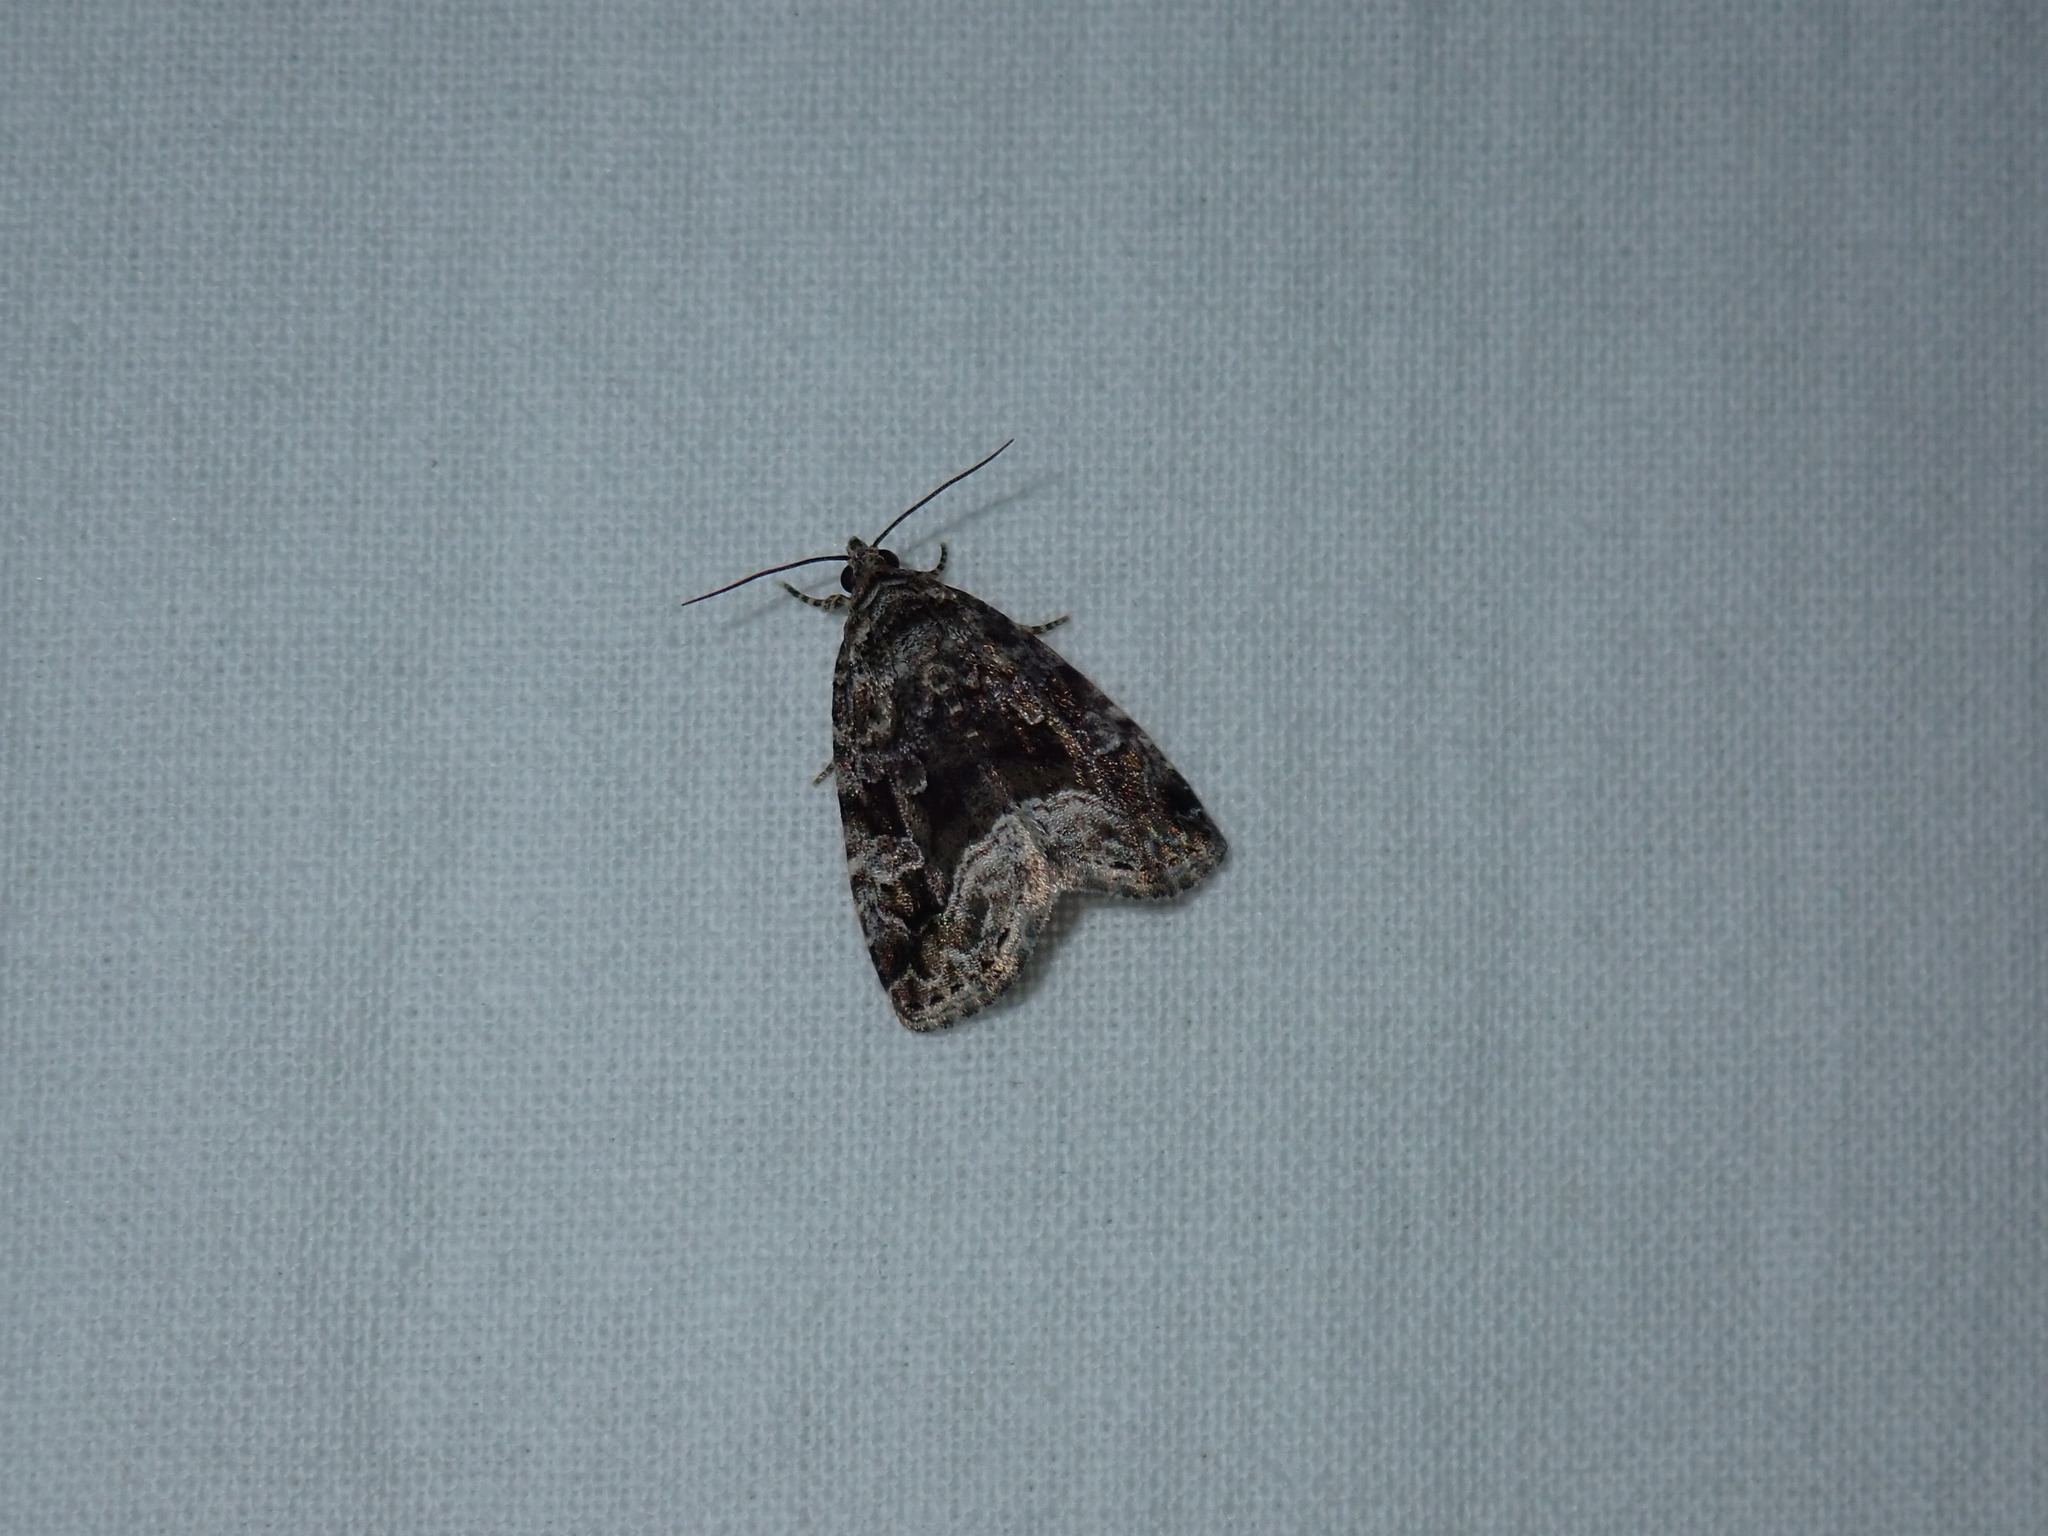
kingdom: Animalia
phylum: Arthropoda
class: Insecta
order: Lepidoptera
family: Noctuidae
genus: Protodeltote
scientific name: Protodeltote muscosula
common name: Large mossy glyph
